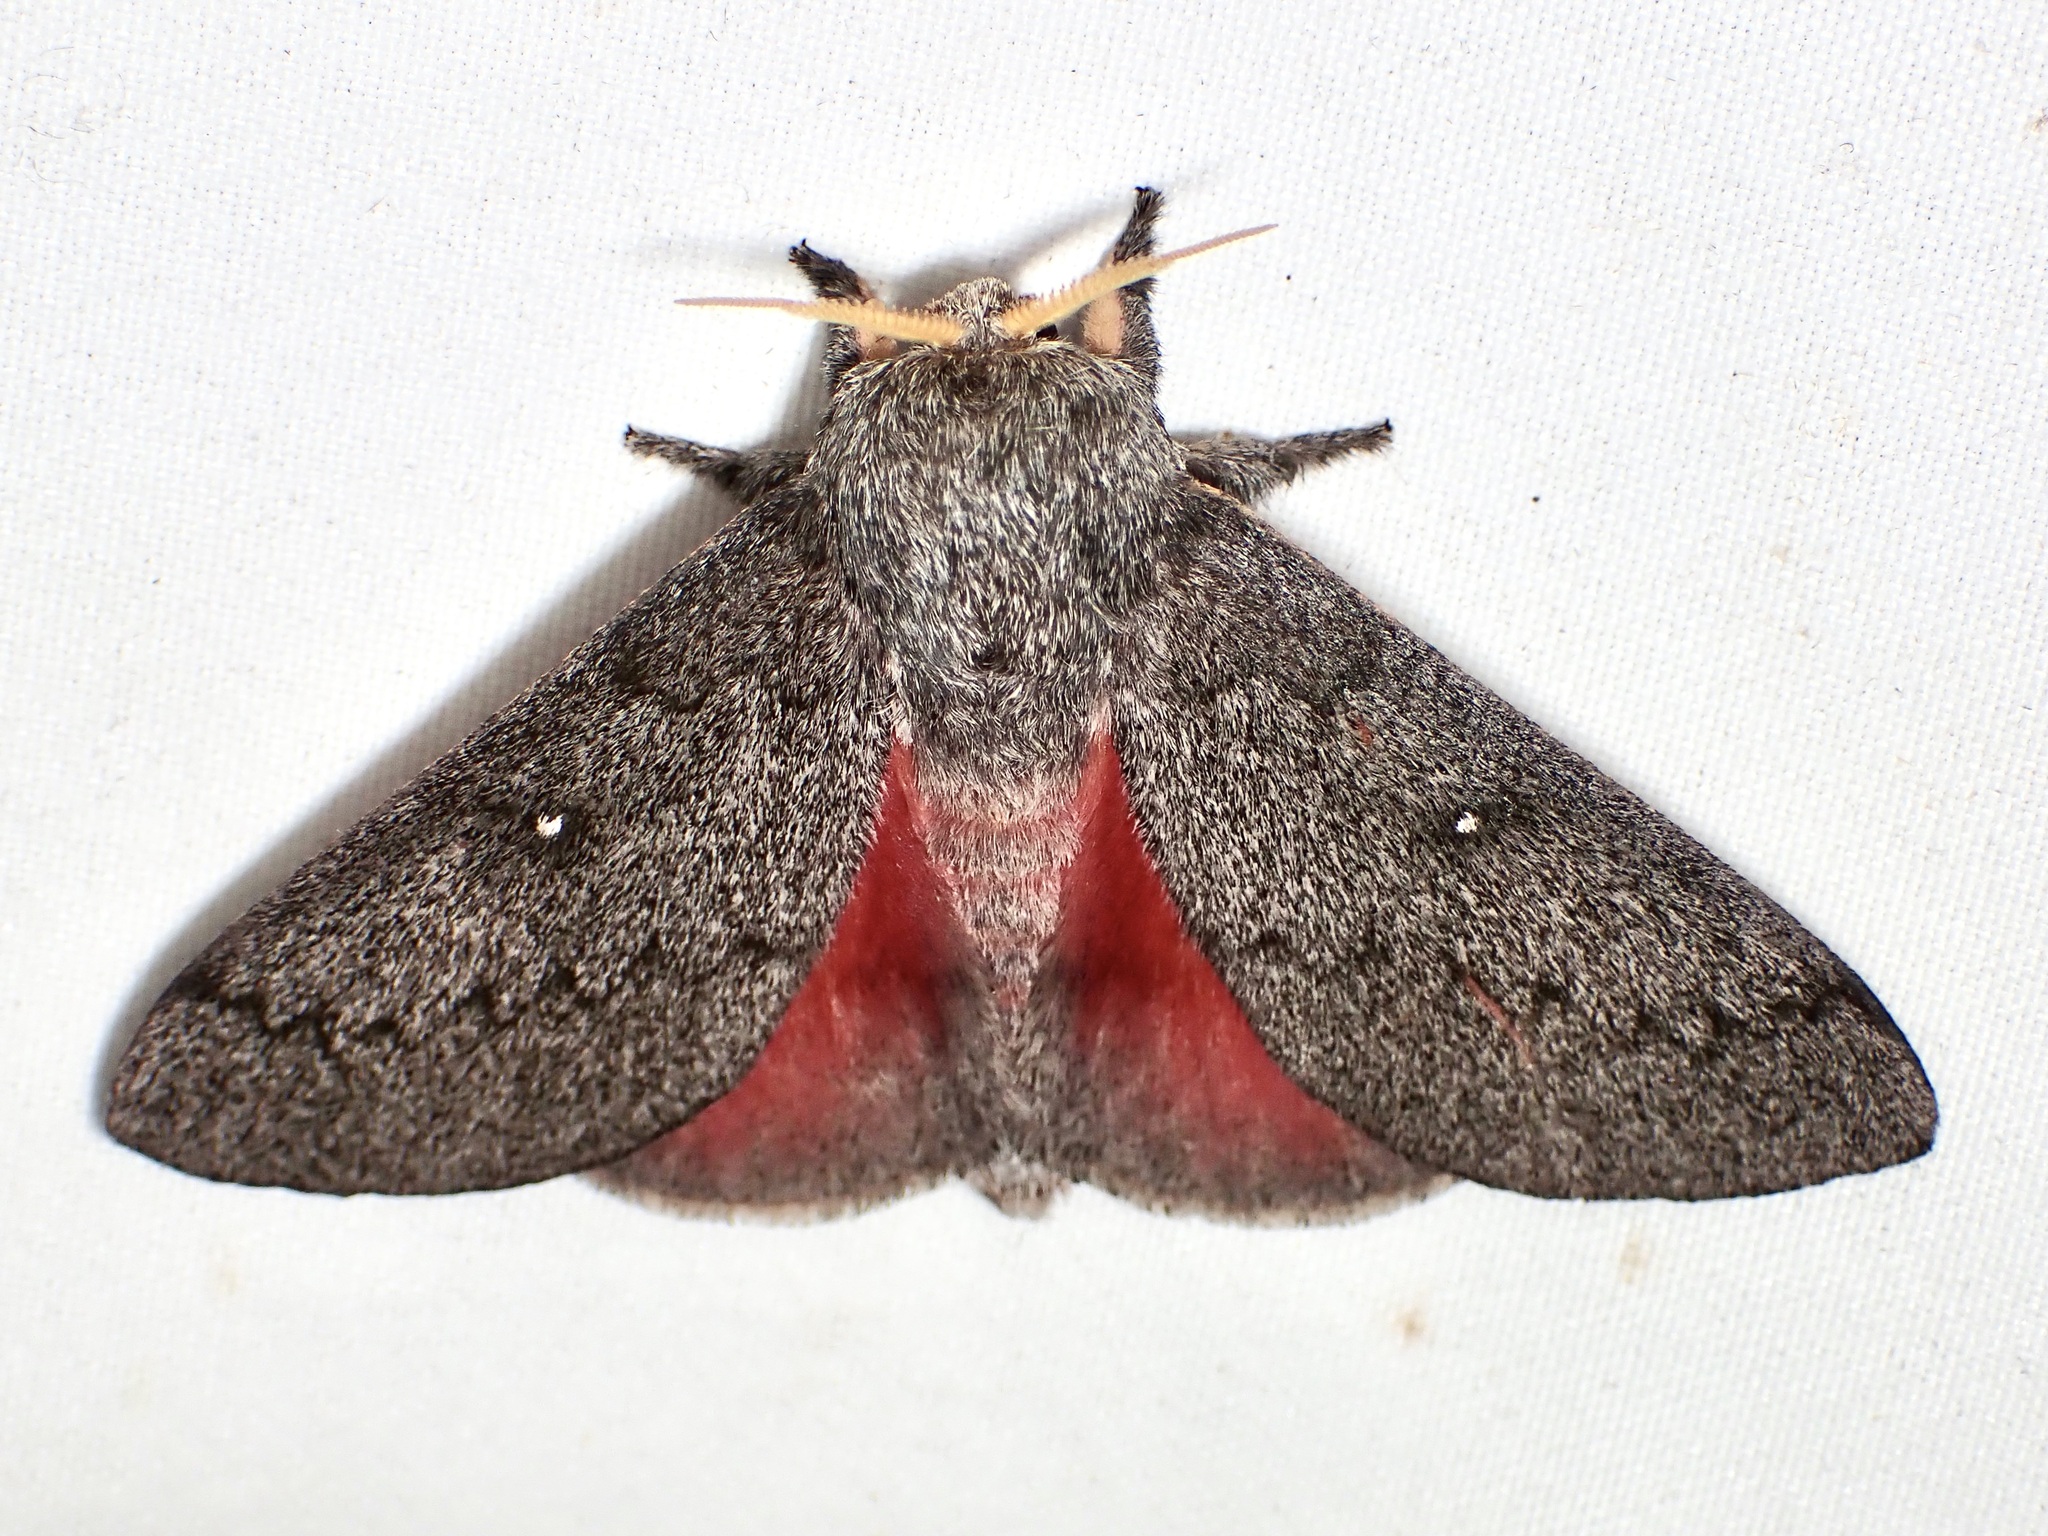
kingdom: Animalia
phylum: Arthropoda
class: Insecta
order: Lepidoptera
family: Saturniidae
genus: Syssphinx
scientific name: Syssphinx hubbardi
